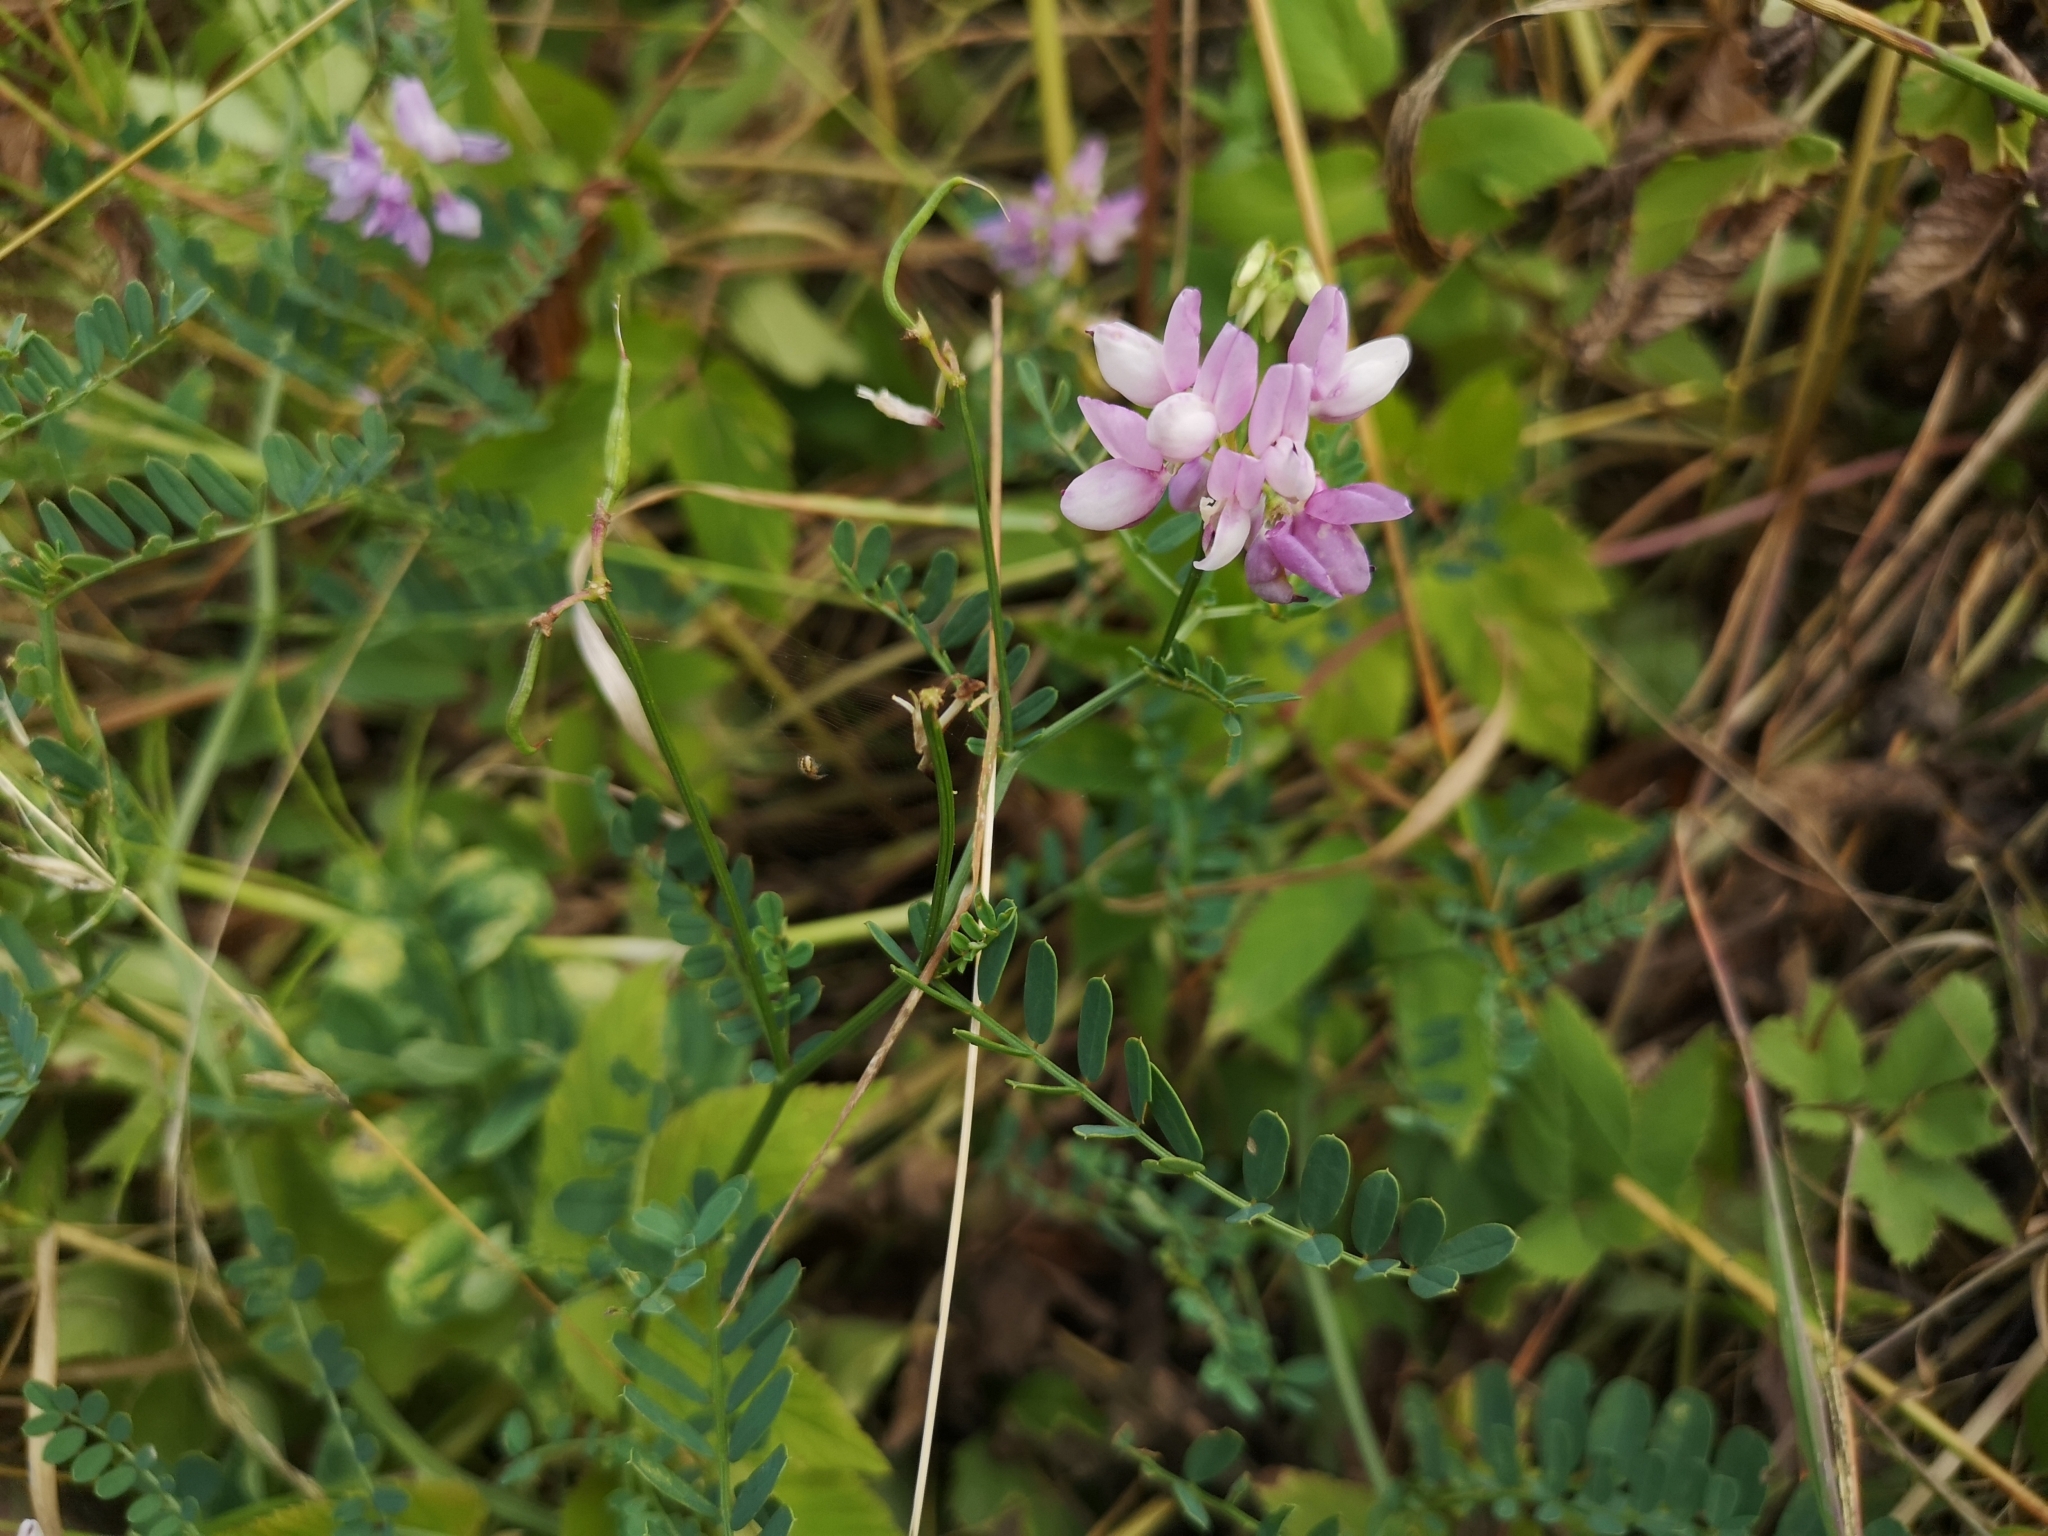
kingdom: Plantae
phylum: Tracheophyta
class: Magnoliopsida
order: Fabales
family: Fabaceae
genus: Coronilla
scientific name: Coronilla varia
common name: Crownvetch
